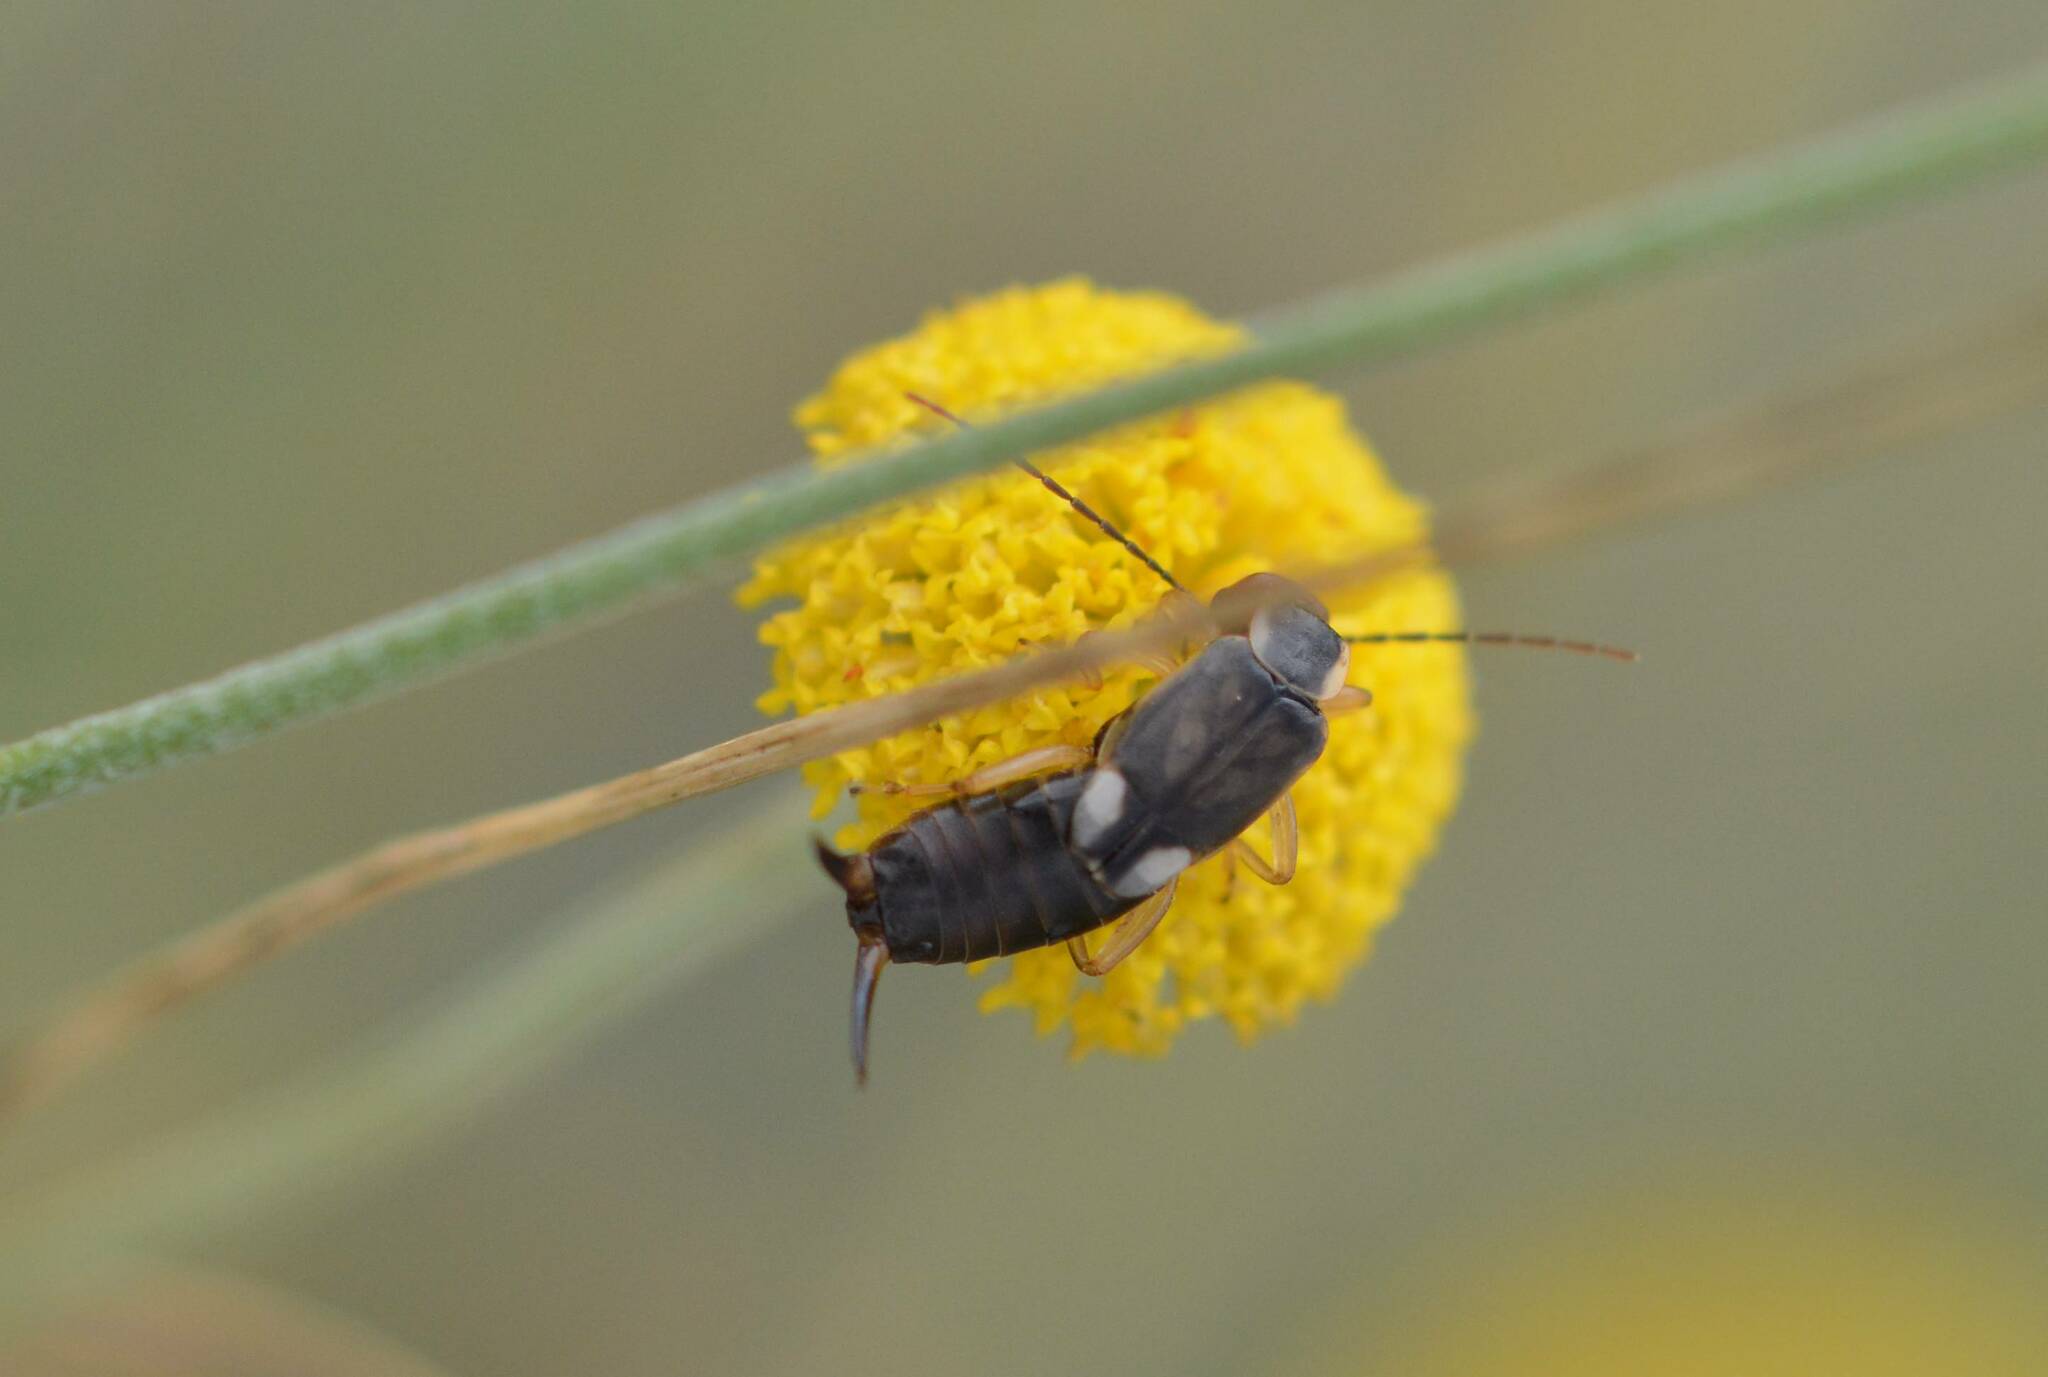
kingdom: Animalia
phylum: Arthropoda
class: Insecta
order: Dermaptera
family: Forficulidae
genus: Forficula
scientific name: Forficula
